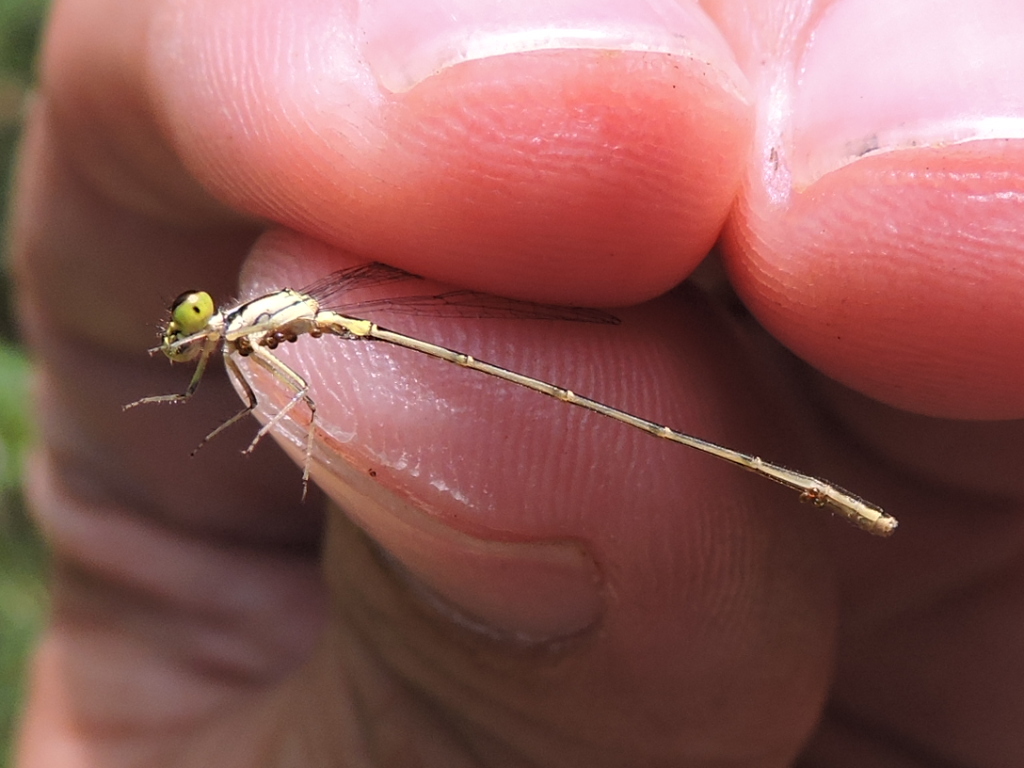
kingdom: Animalia
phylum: Arthropoda
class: Insecta
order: Odonata
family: Coenagrionidae
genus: Ischnura
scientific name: Ischnura hastata
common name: Citrine forktail
